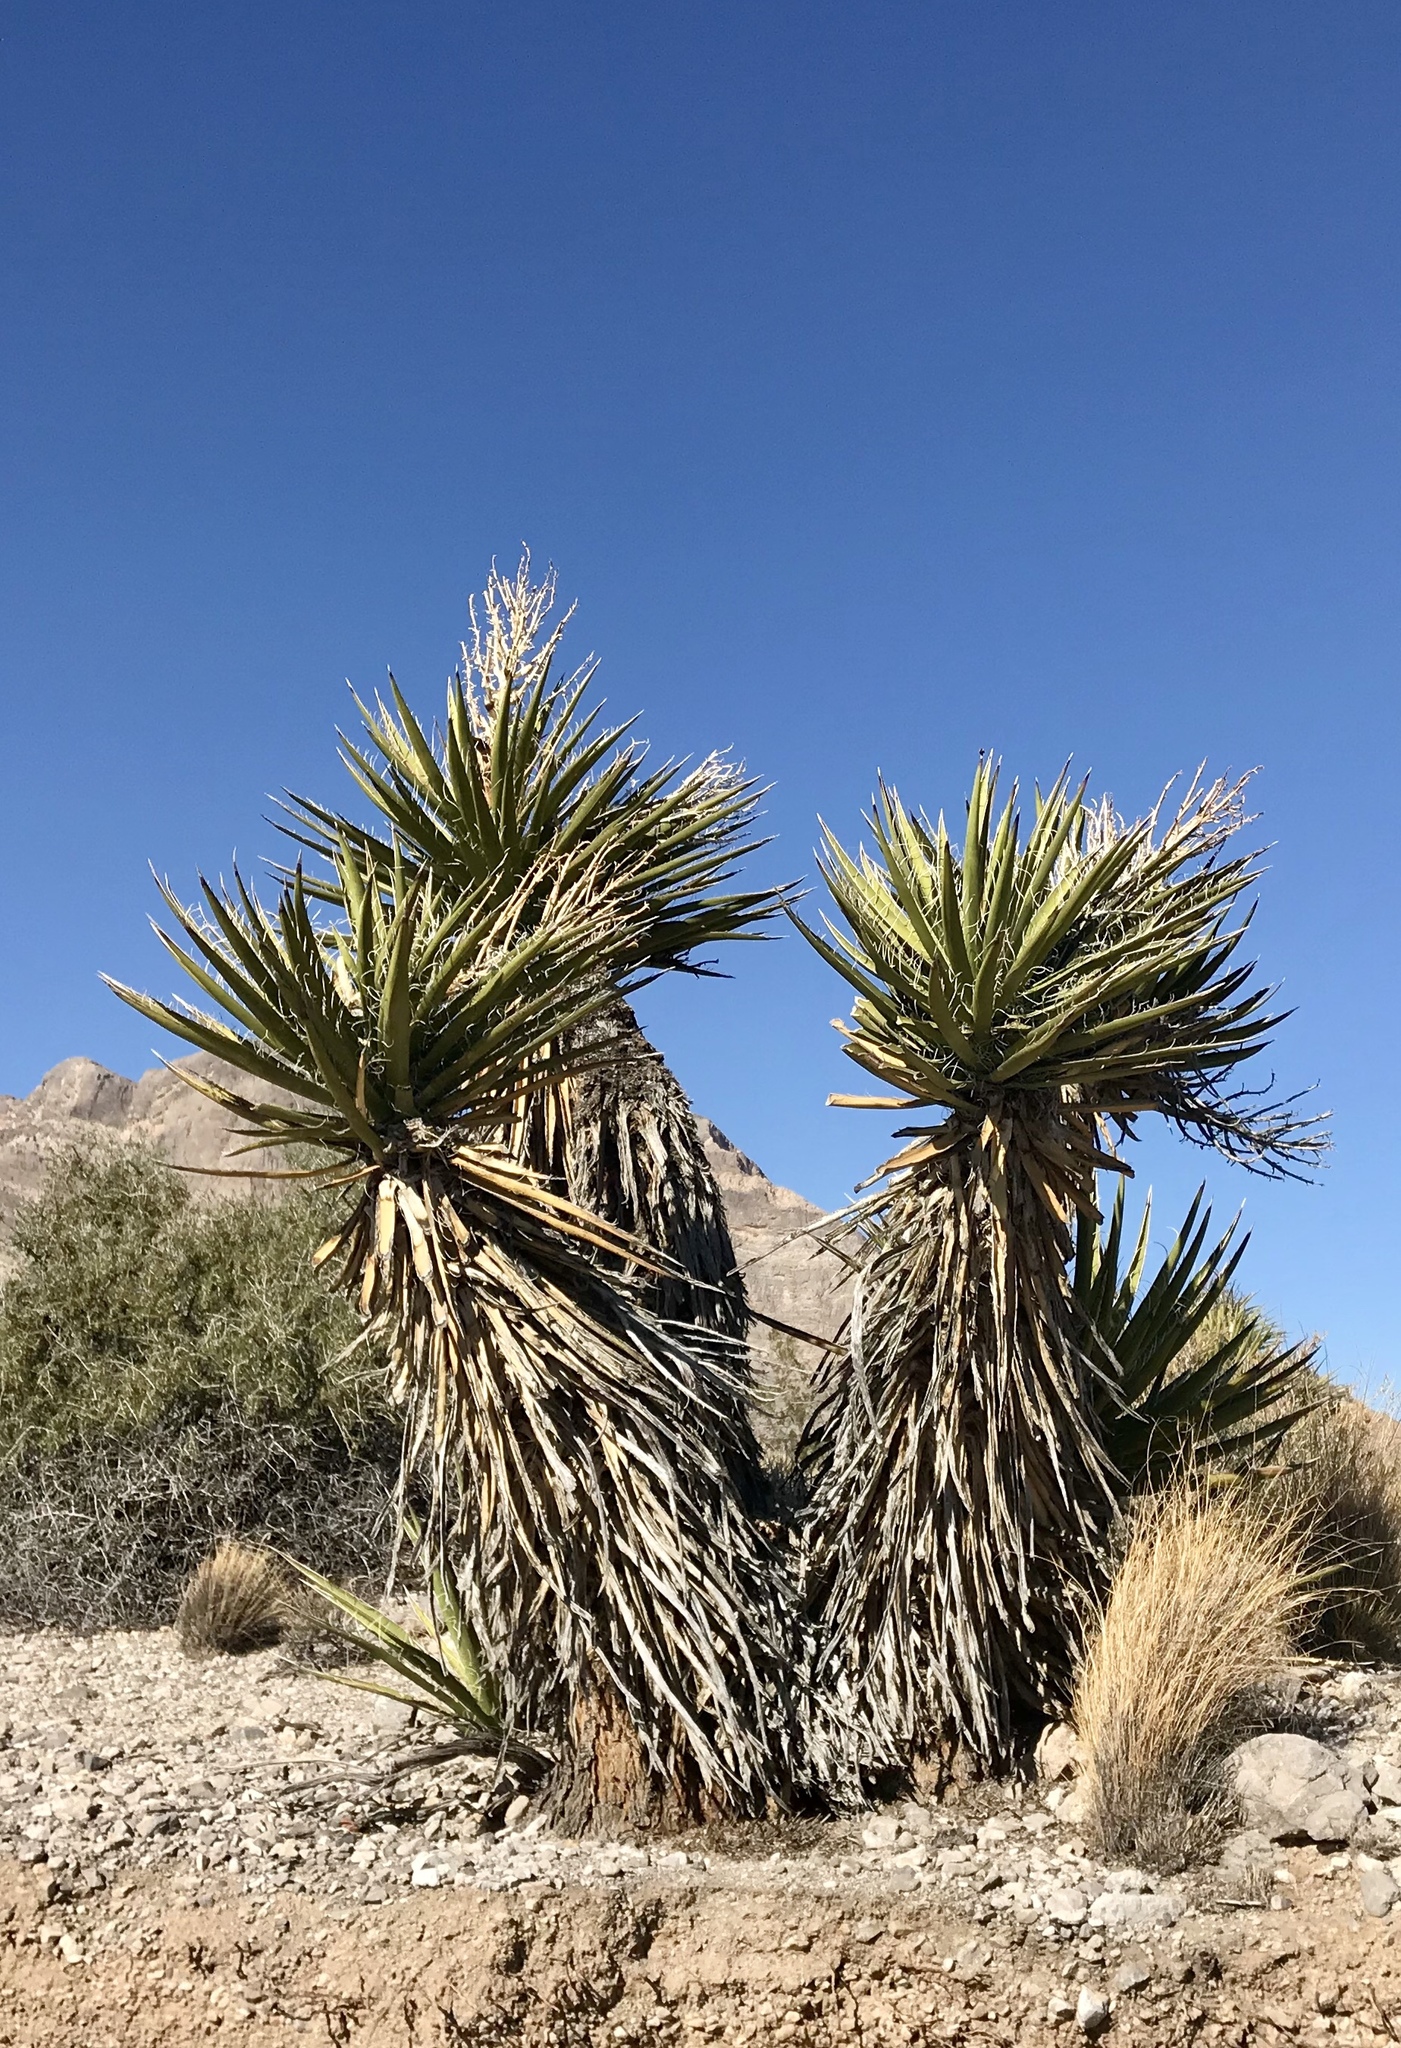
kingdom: Plantae
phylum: Tracheophyta
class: Liliopsida
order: Asparagales
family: Asparagaceae
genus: Yucca
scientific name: Yucca schidigera
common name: Mojave yucca
